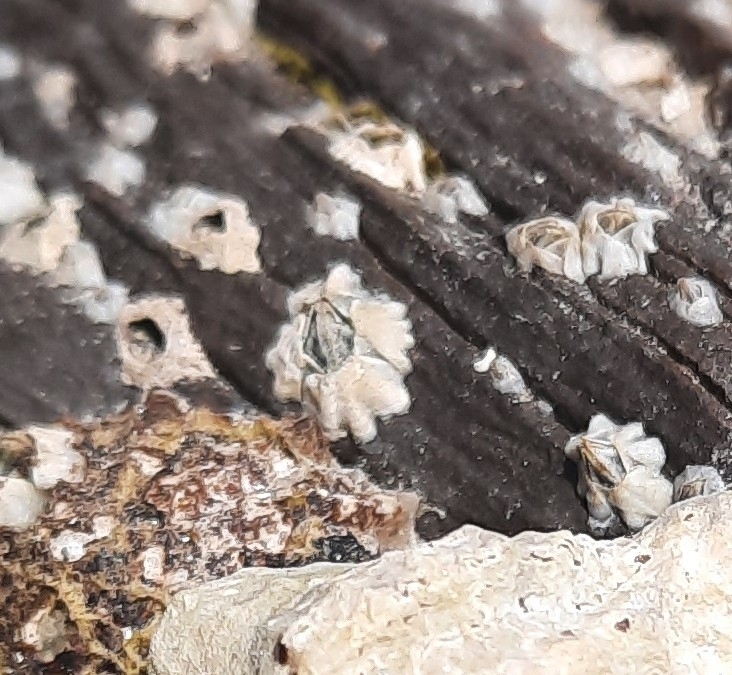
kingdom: Animalia
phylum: Arthropoda
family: Elminiidae
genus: Austrominius
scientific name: Austrominius modestus
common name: Australasian barnacle
